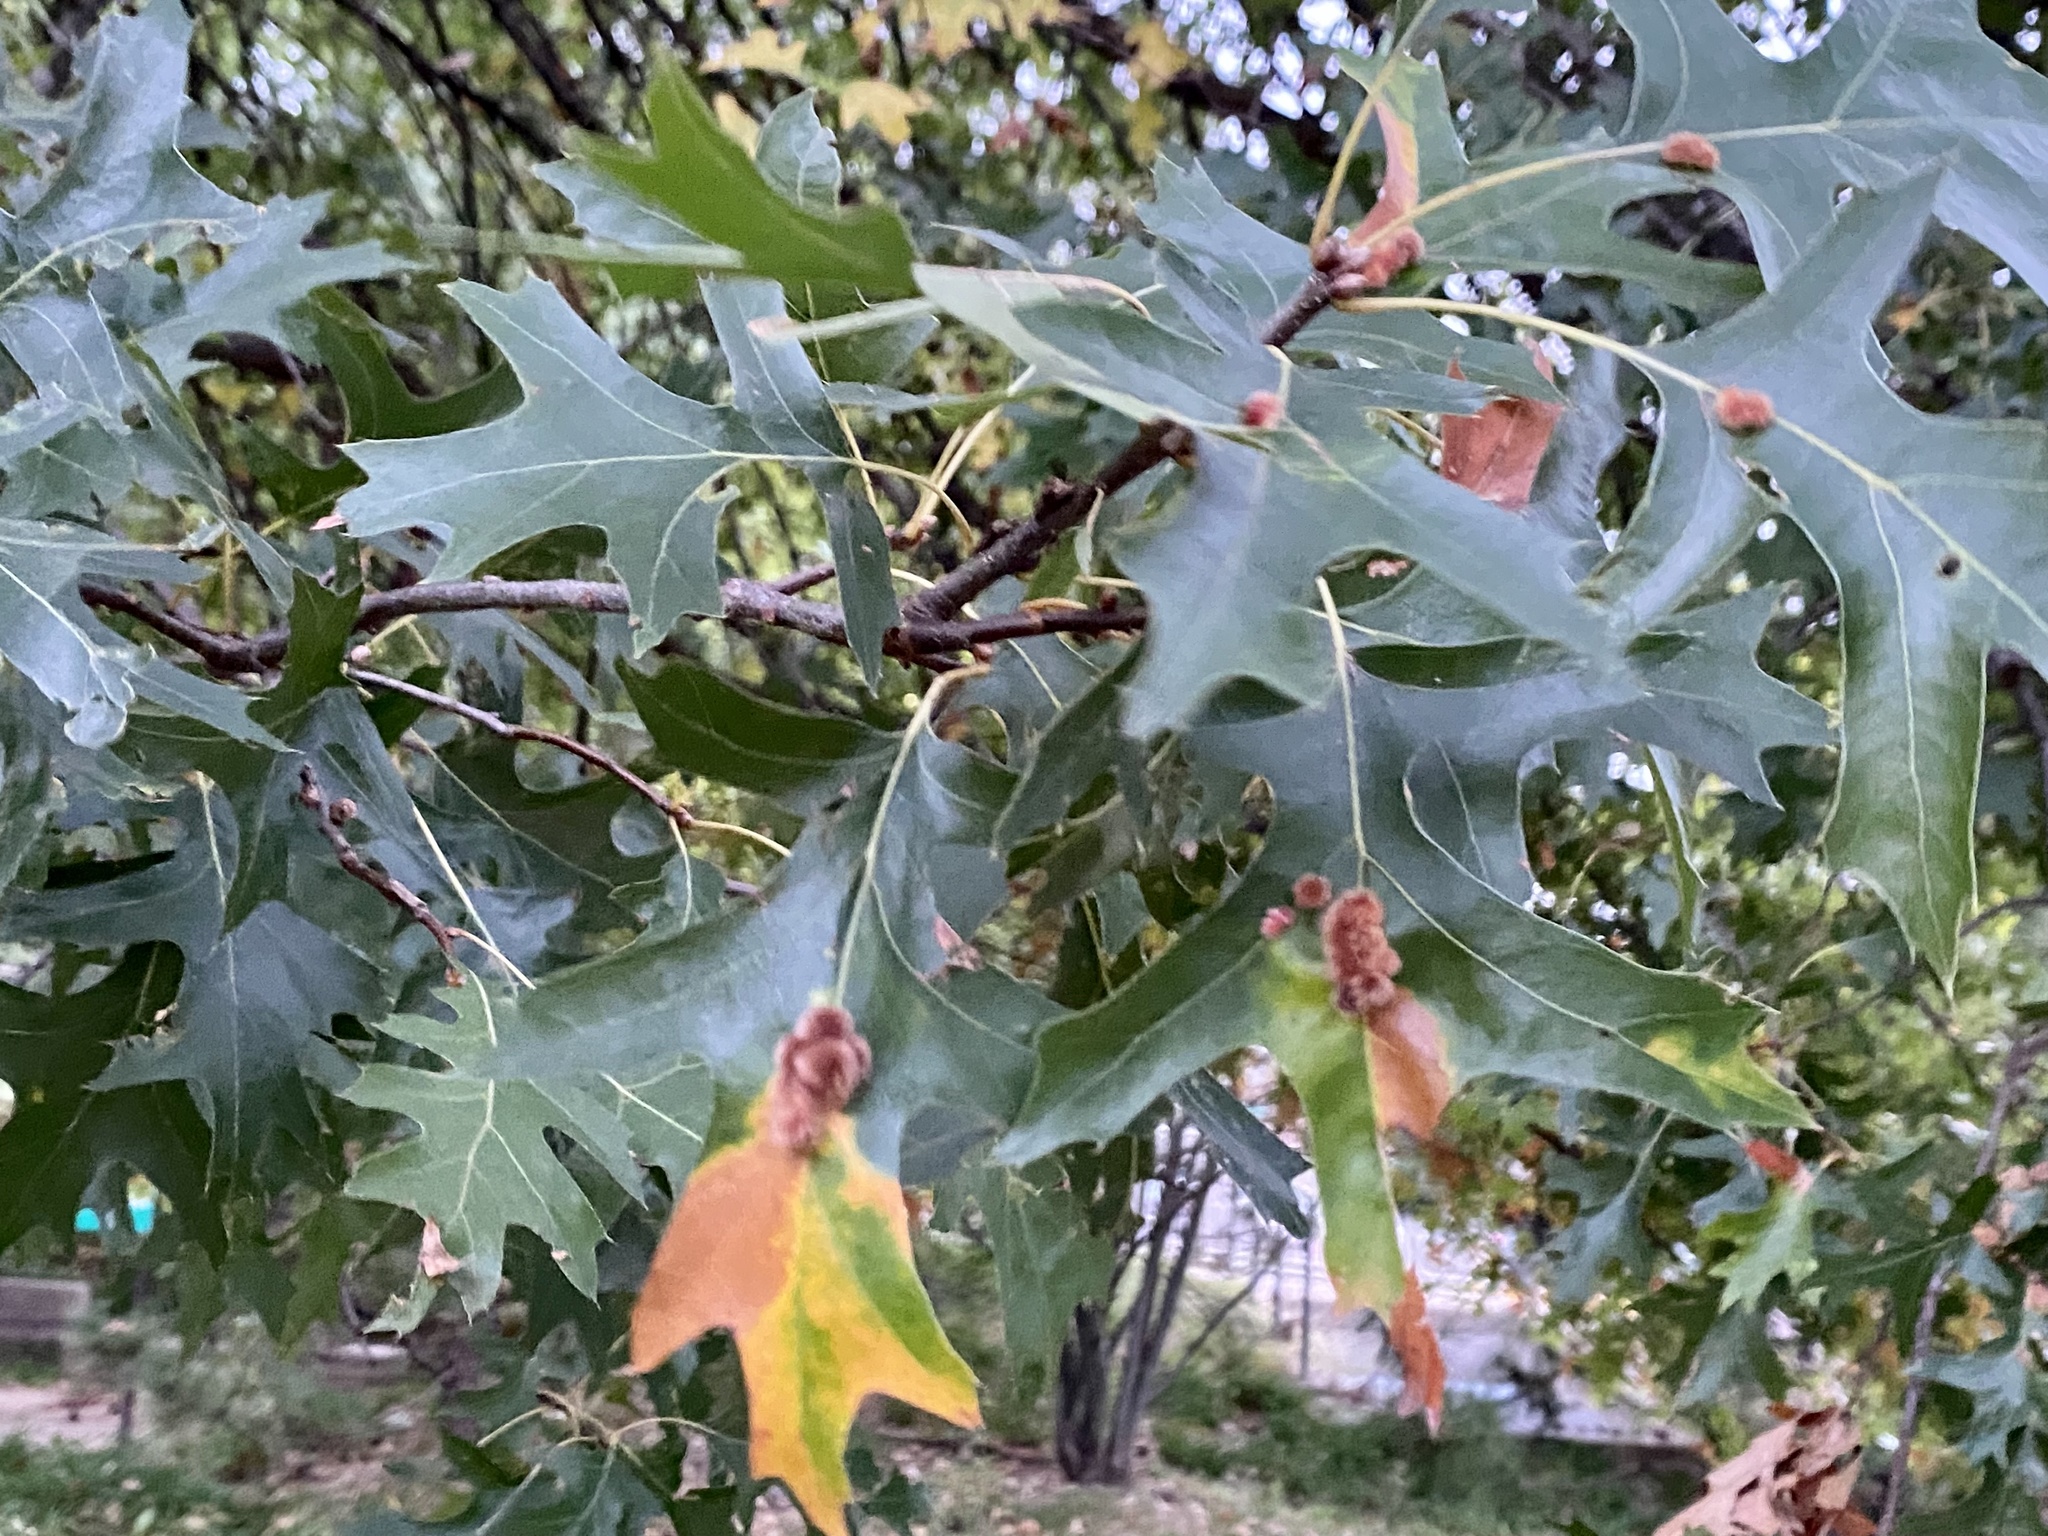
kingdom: Animalia
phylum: Arthropoda
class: Insecta
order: Hymenoptera
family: Cynipidae
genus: Callirhytis
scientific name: Callirhytis
